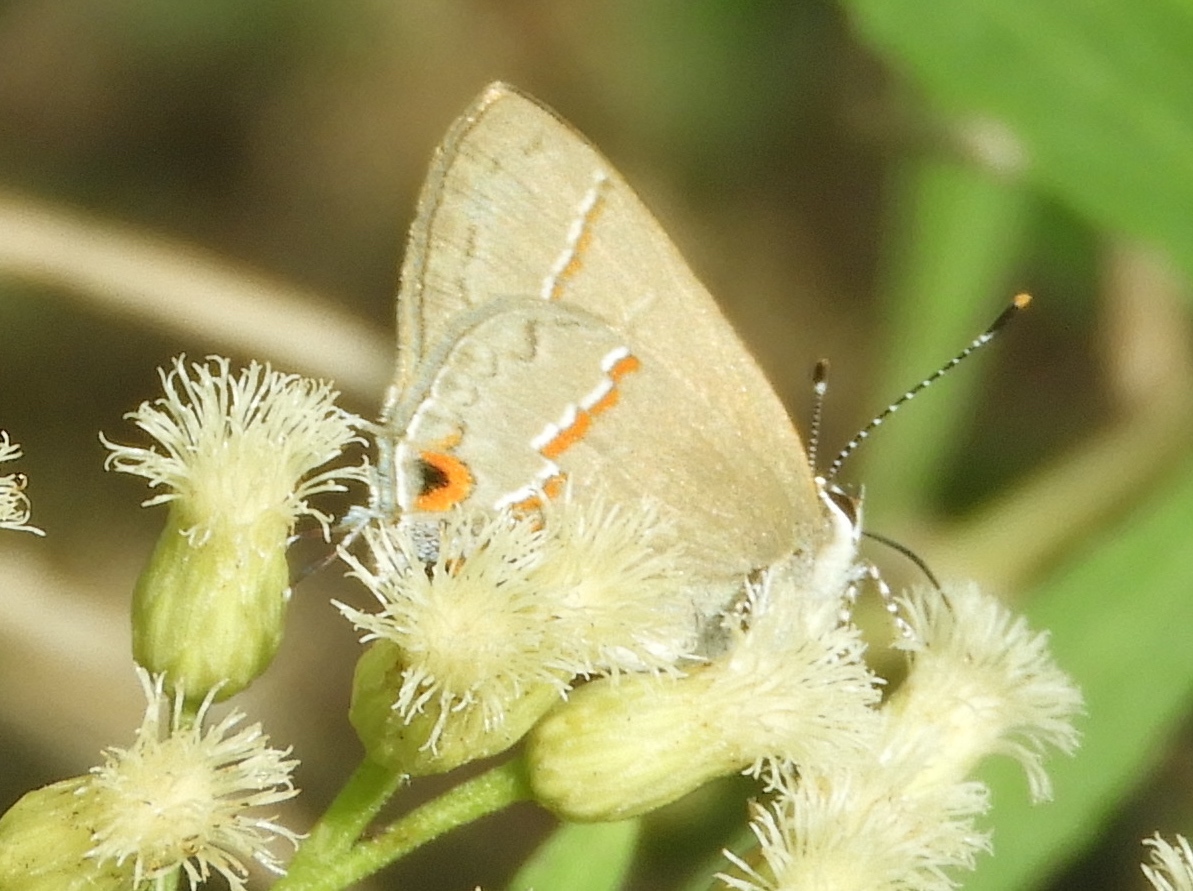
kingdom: Animalia
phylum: Arthropoda
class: Insecta
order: Lepidoptera
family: Lycaenidae
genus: Electrostrymon
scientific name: Electrostrymon endymion
